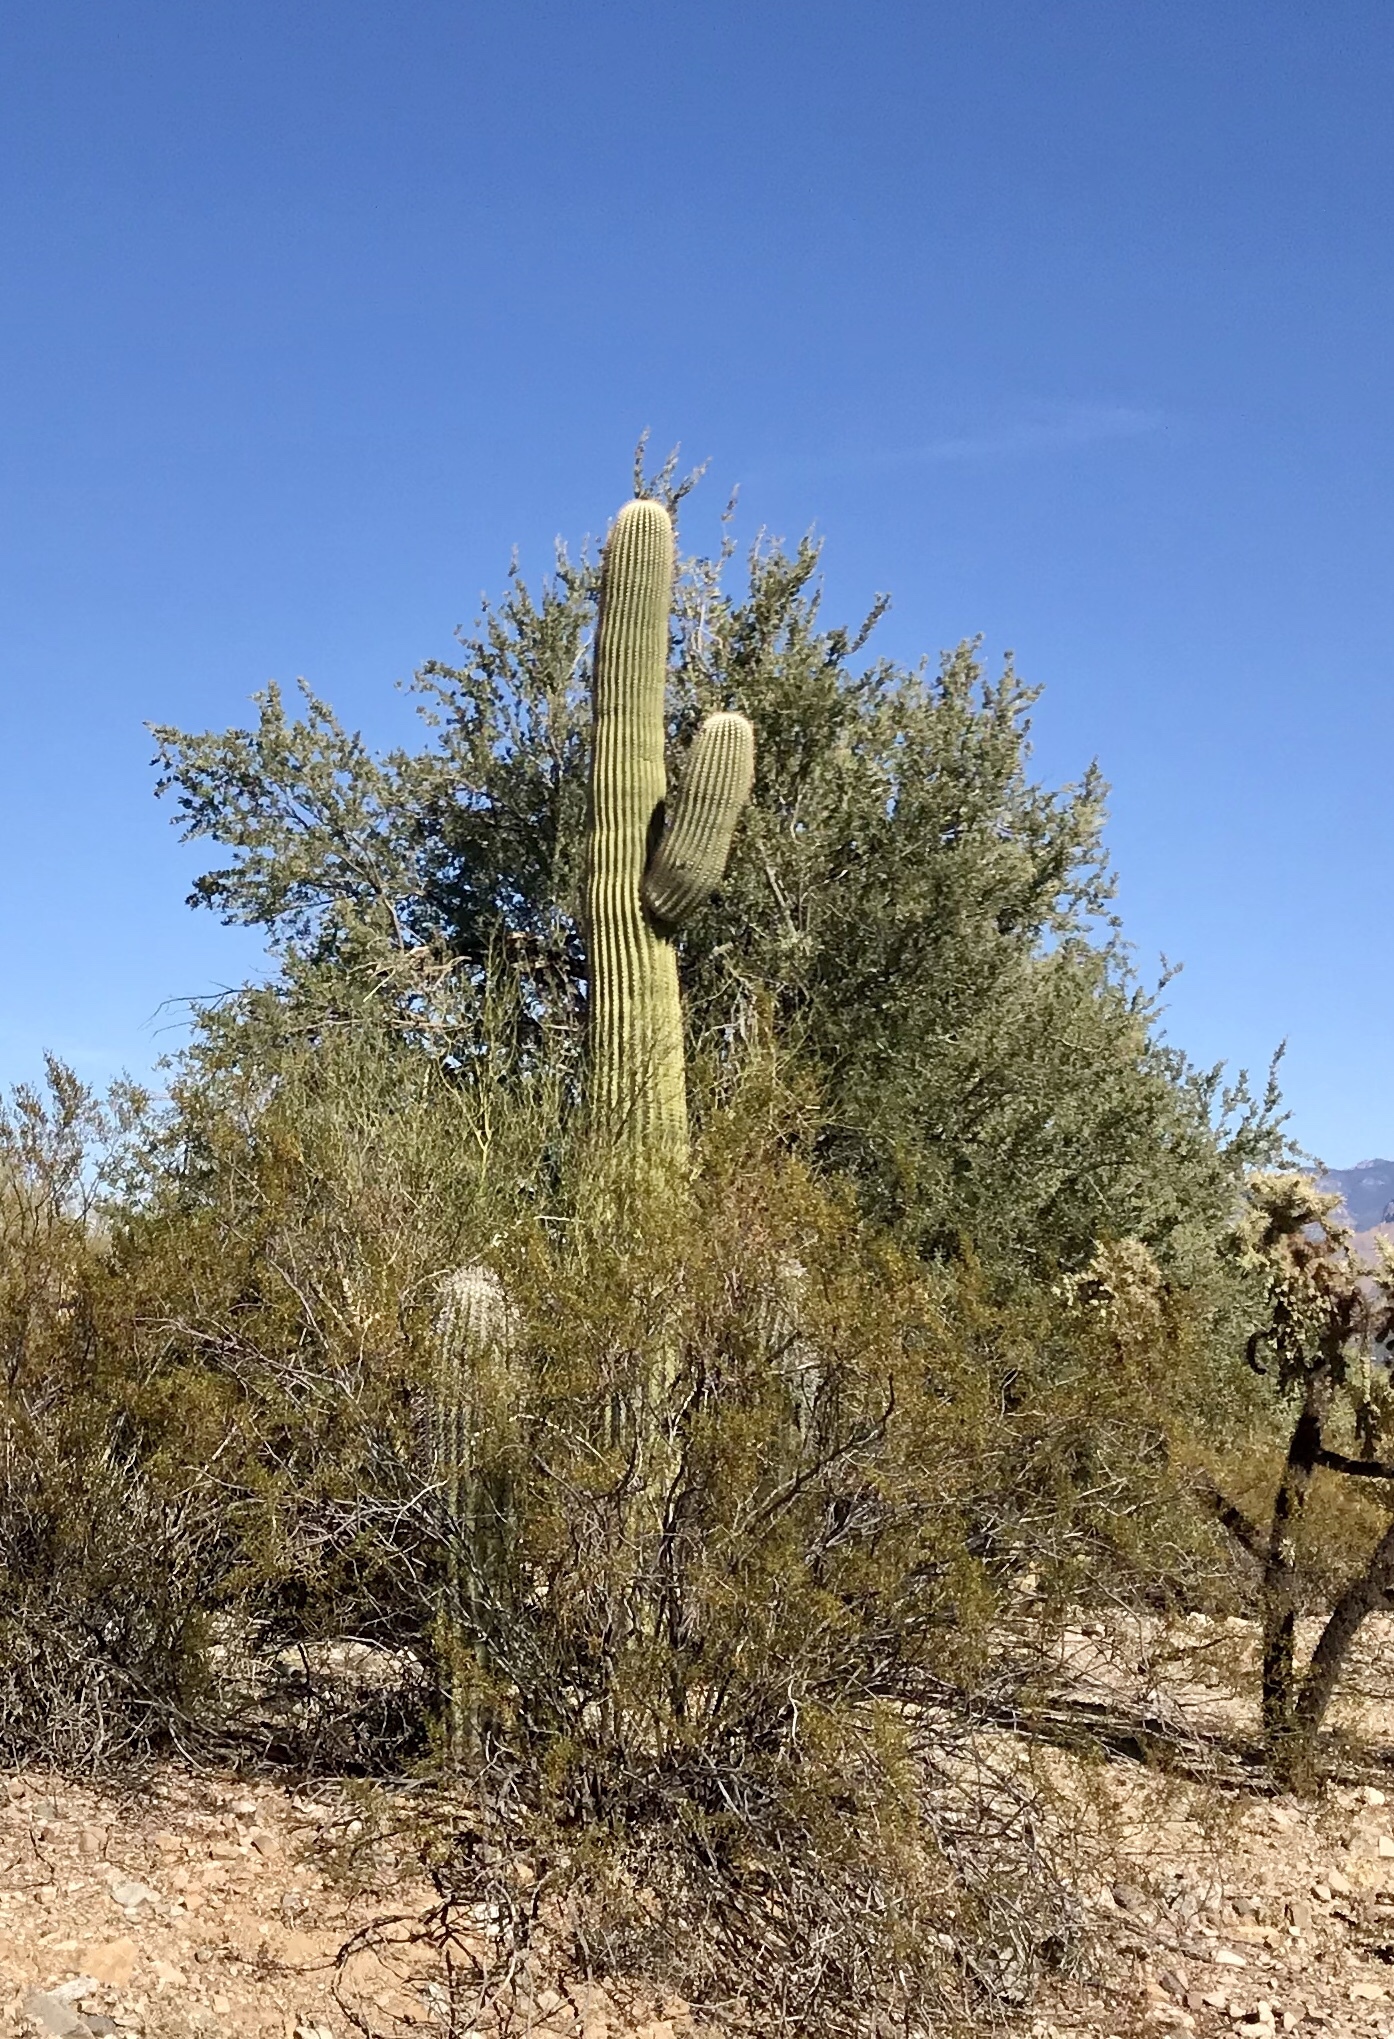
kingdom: Plantae
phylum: Tracheophyta
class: Magnoliopsida
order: Caryophyllales
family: Cactaceae
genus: Carnegiea
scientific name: Carnegiea gigantea
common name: Saguaro
